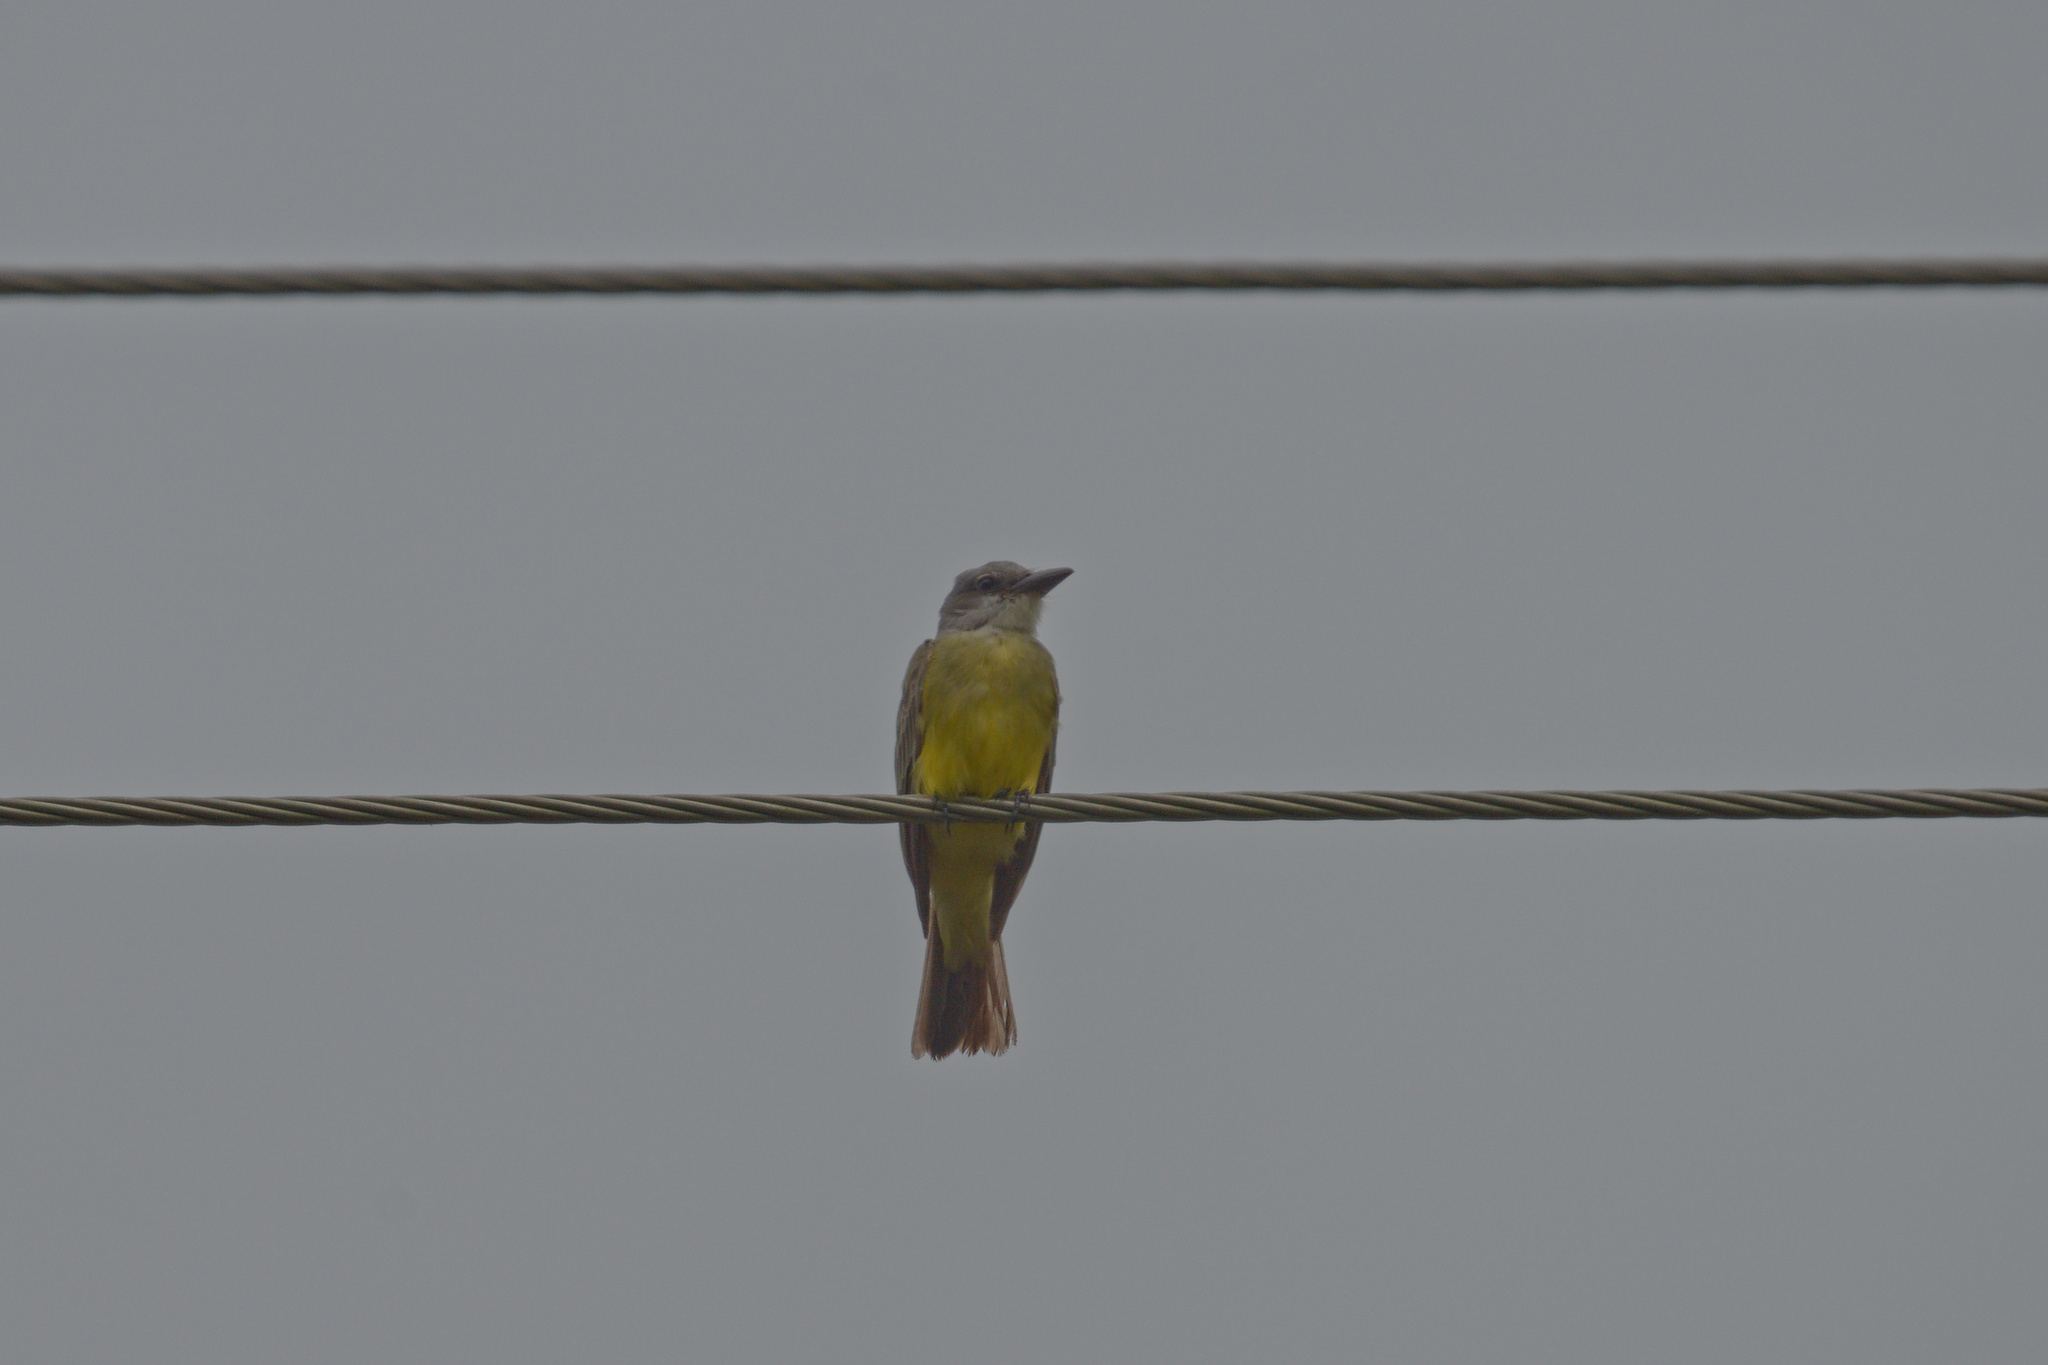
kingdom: Animalia
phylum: Chordata
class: Aves
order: Passeriformes
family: Tyrannidae
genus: Tyrannus
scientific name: Tyrannus melancholicus
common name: Tropical kingbird
